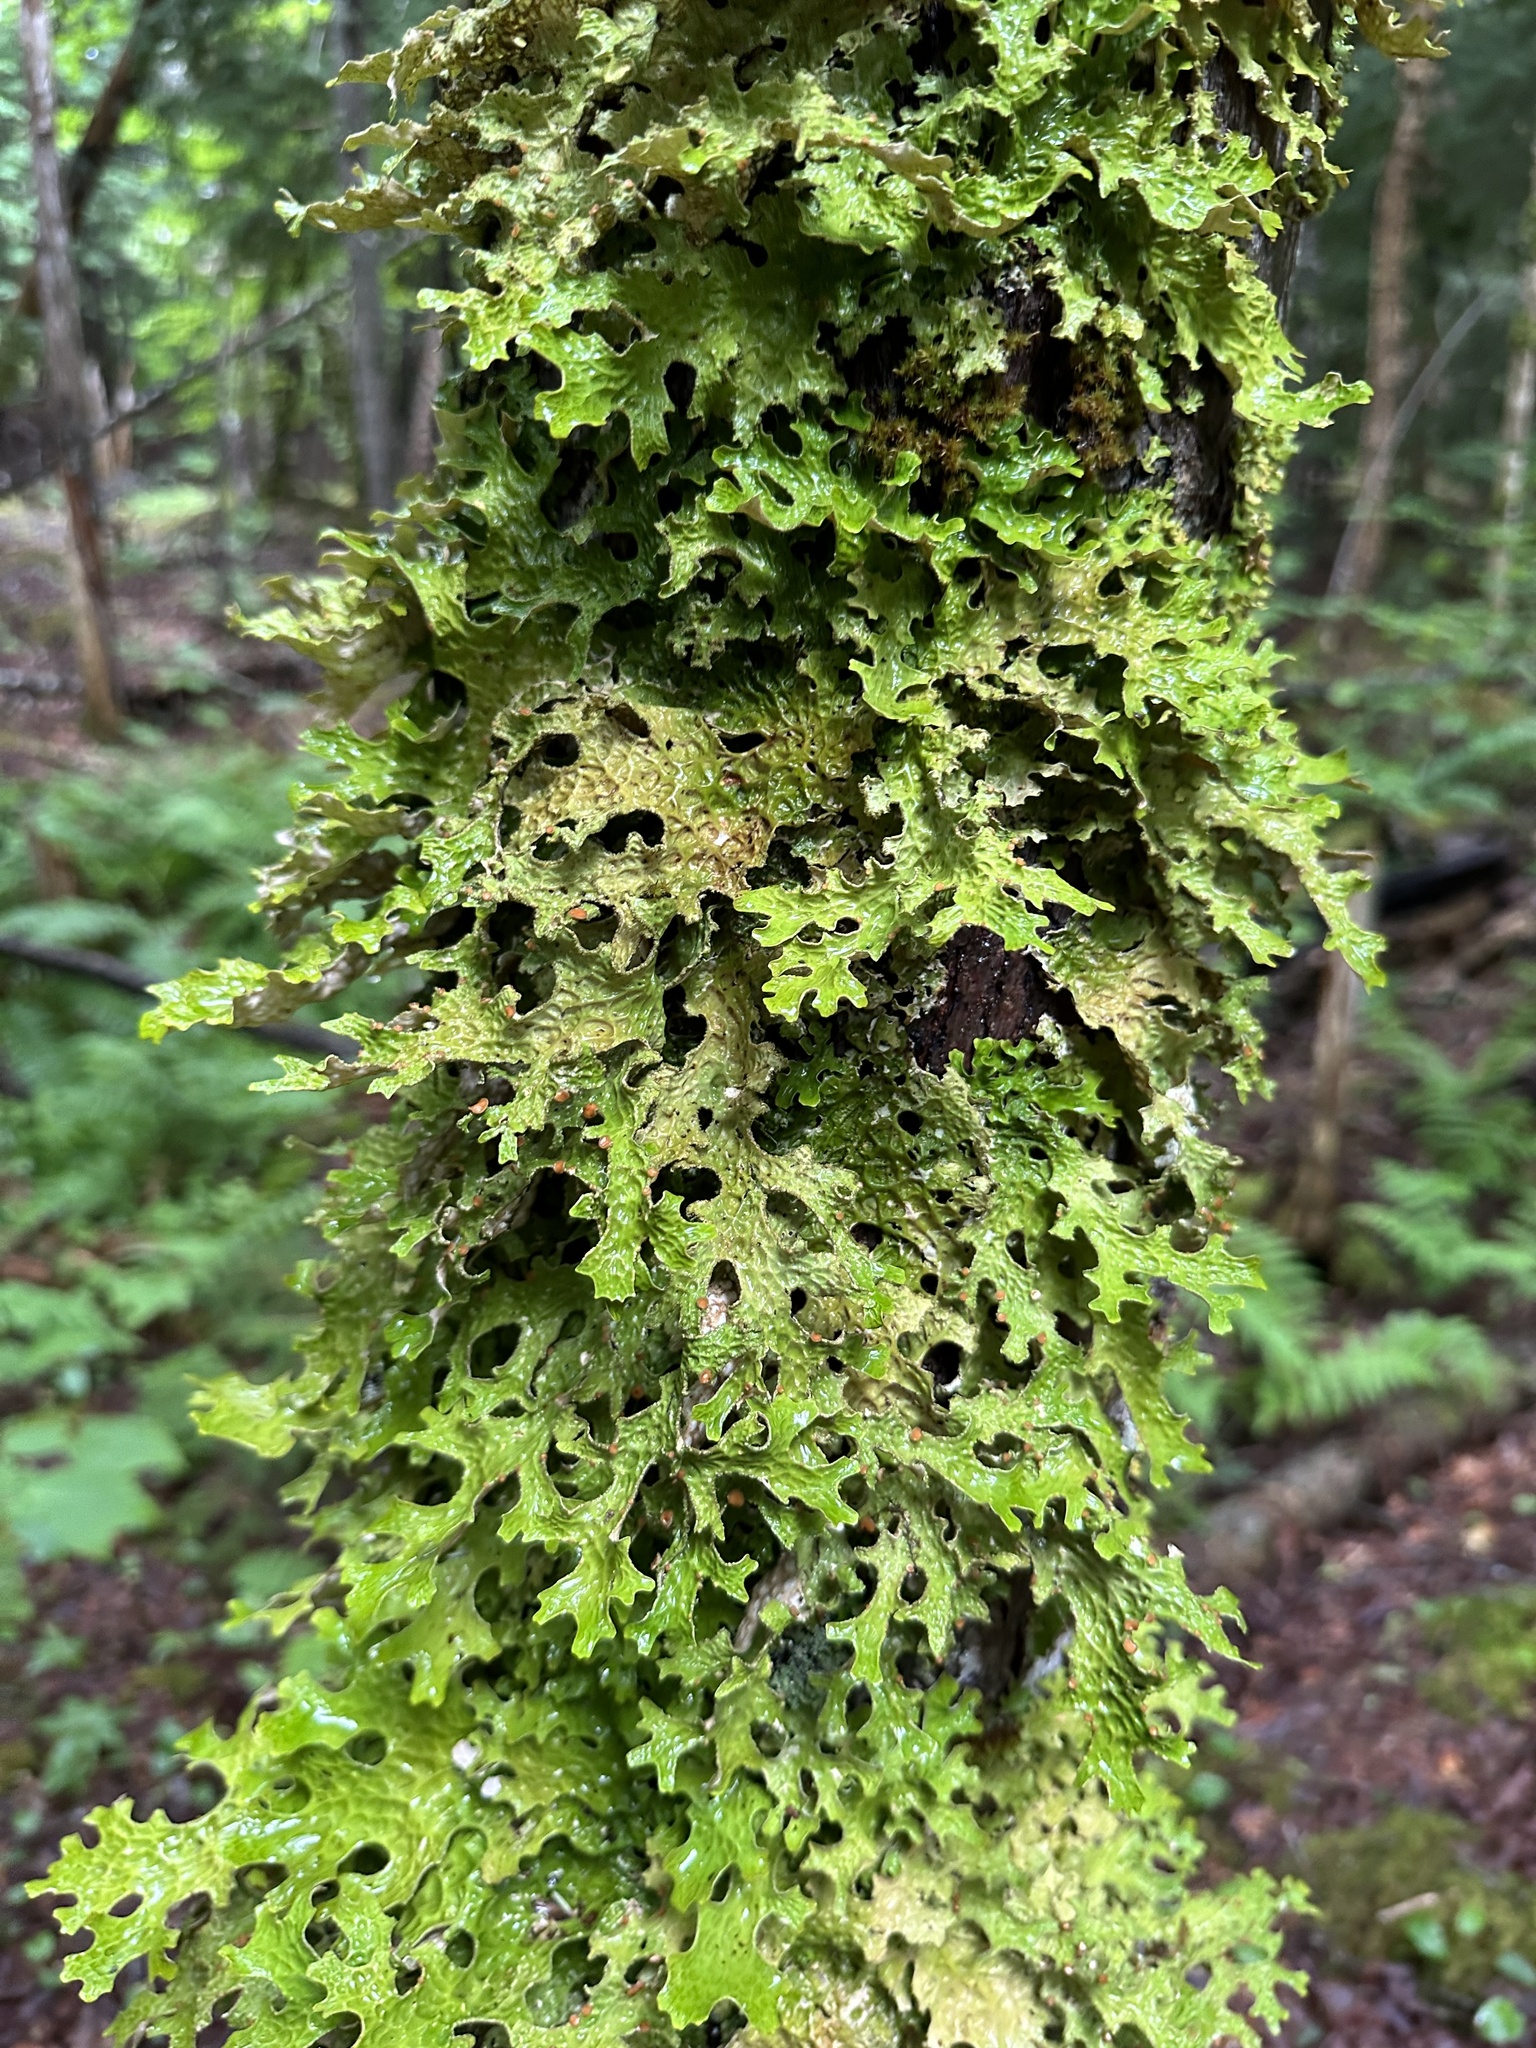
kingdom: Fungi
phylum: Ascomycota
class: Lecanoromycetes
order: Peltigerales
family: Lobariaceae
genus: Lobaria
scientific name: Lobaria pulmonaria
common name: Lungwort
